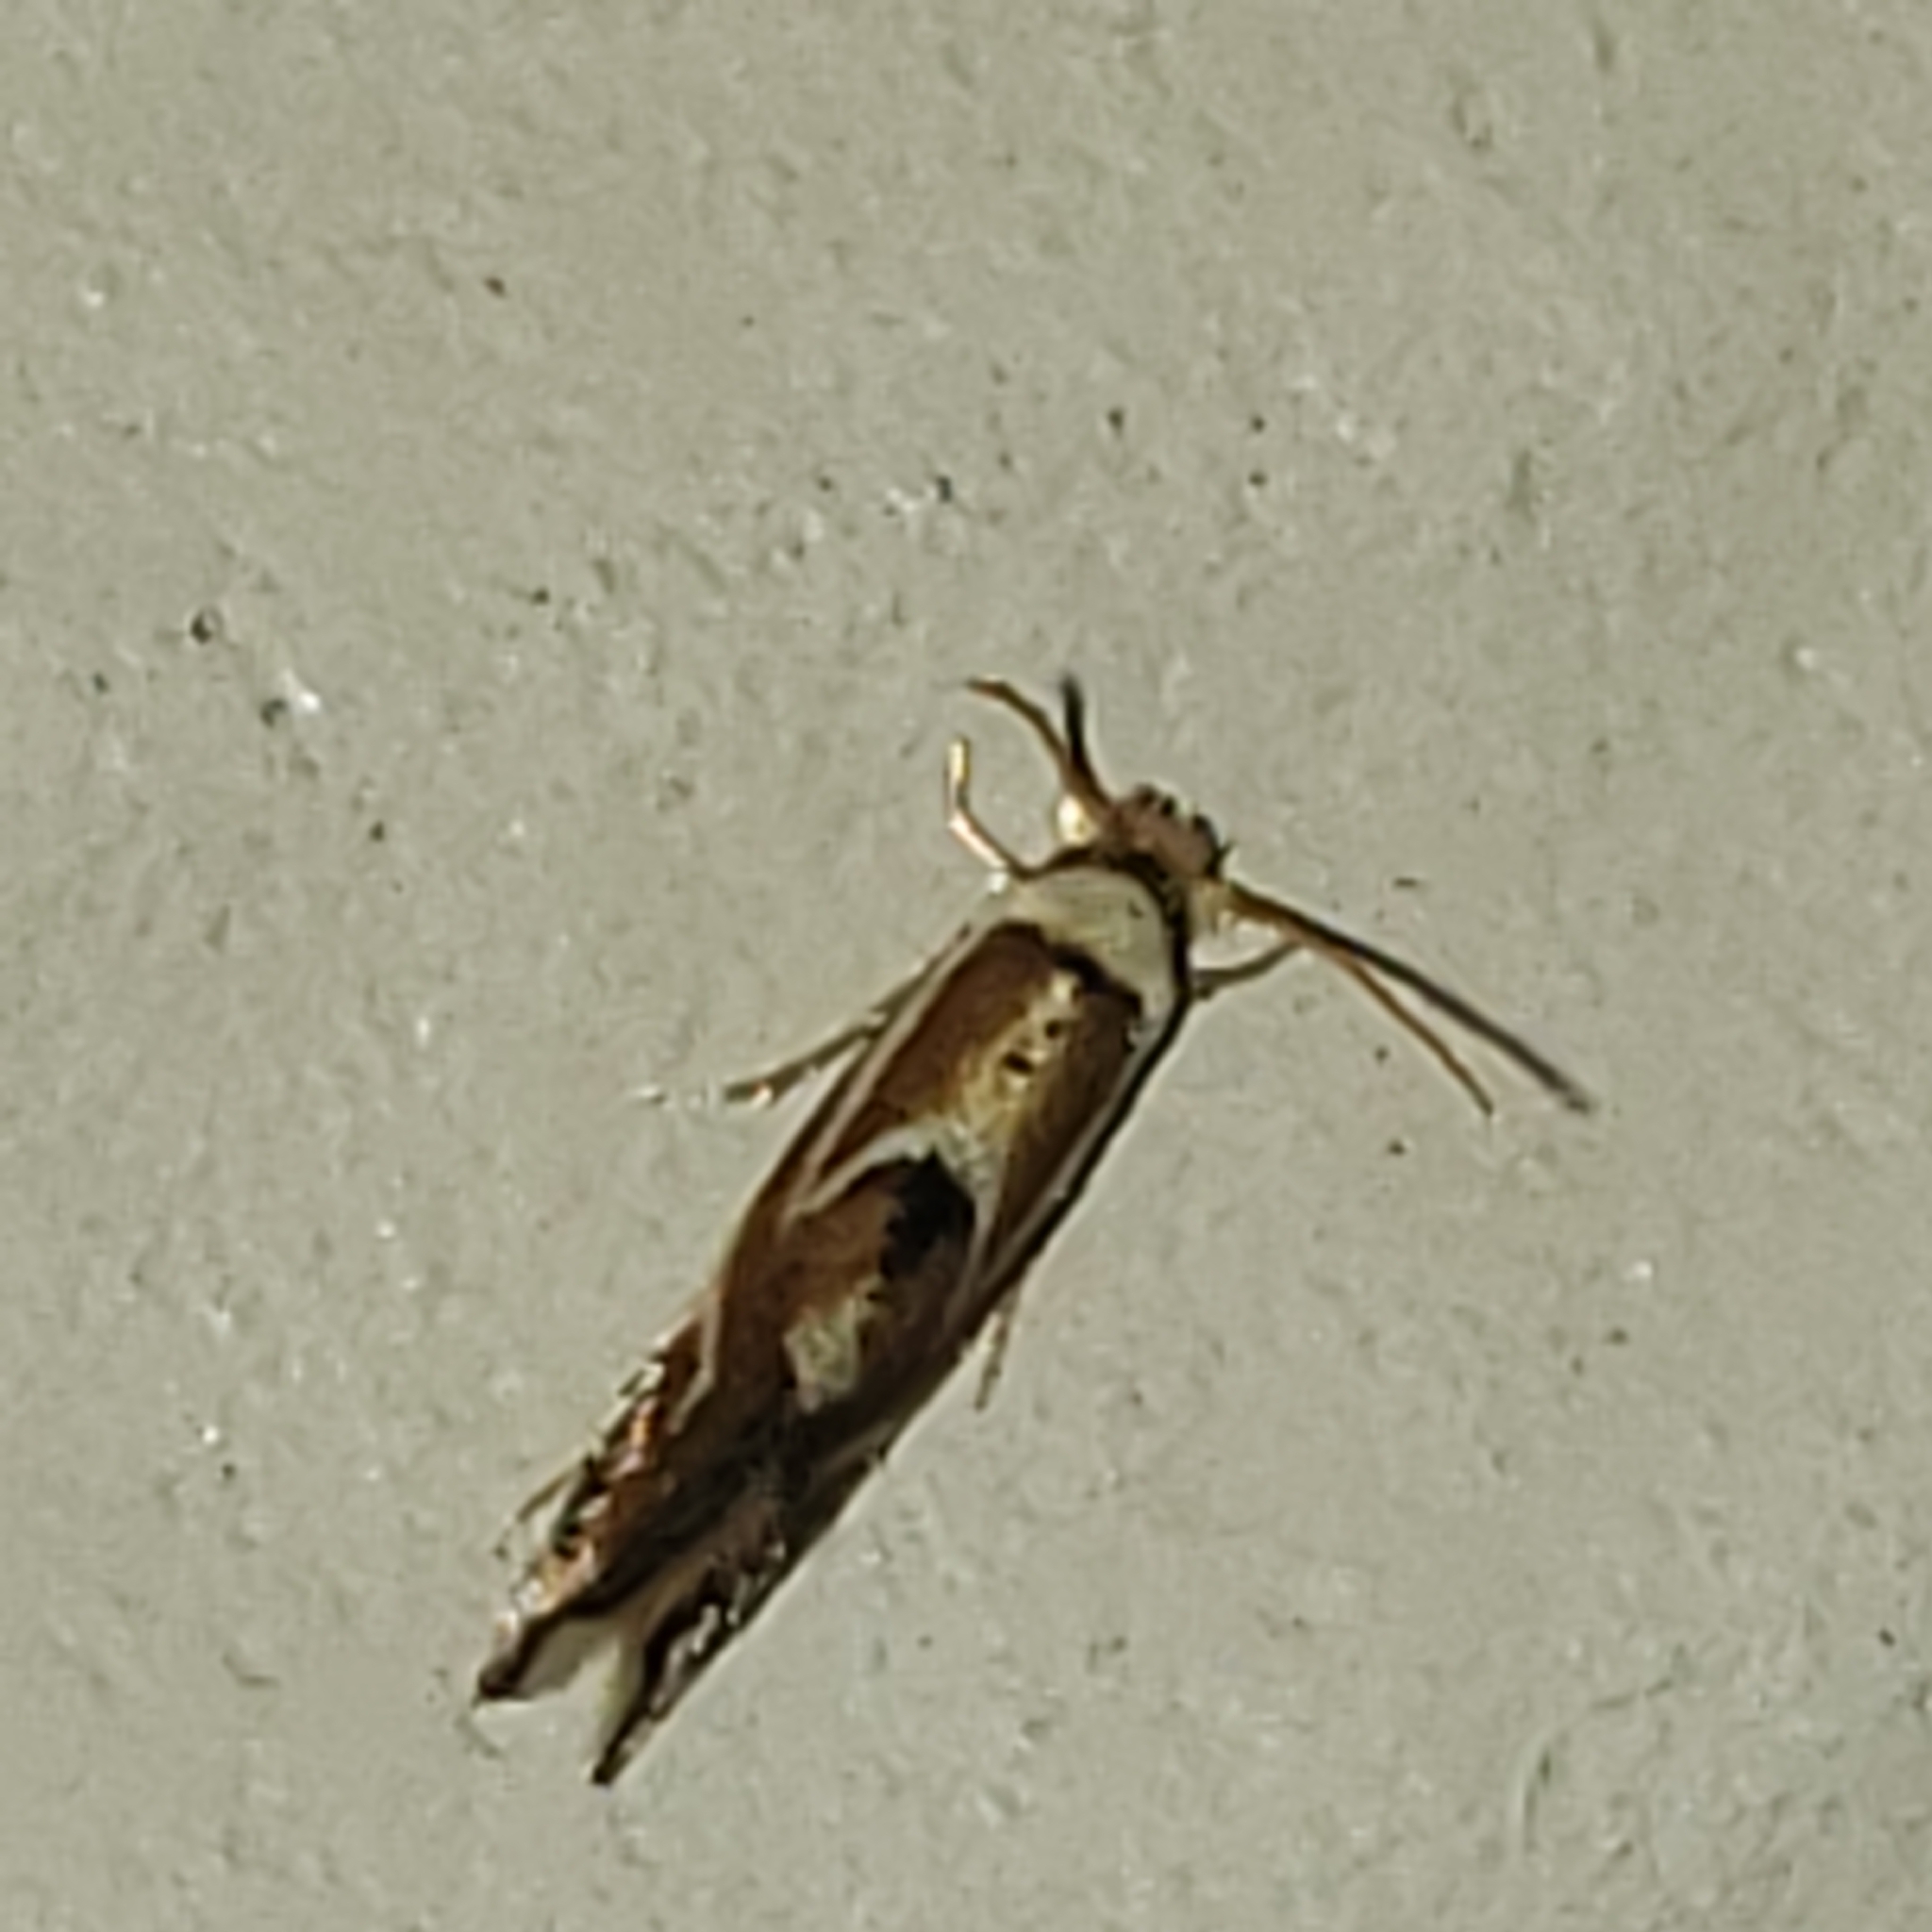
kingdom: Animalia
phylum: Arthropoda
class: Insecta
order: Lepidoptera
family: Lyonetiidae
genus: Philonome
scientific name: Philonome clemensella
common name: Clemen's philonome moth
